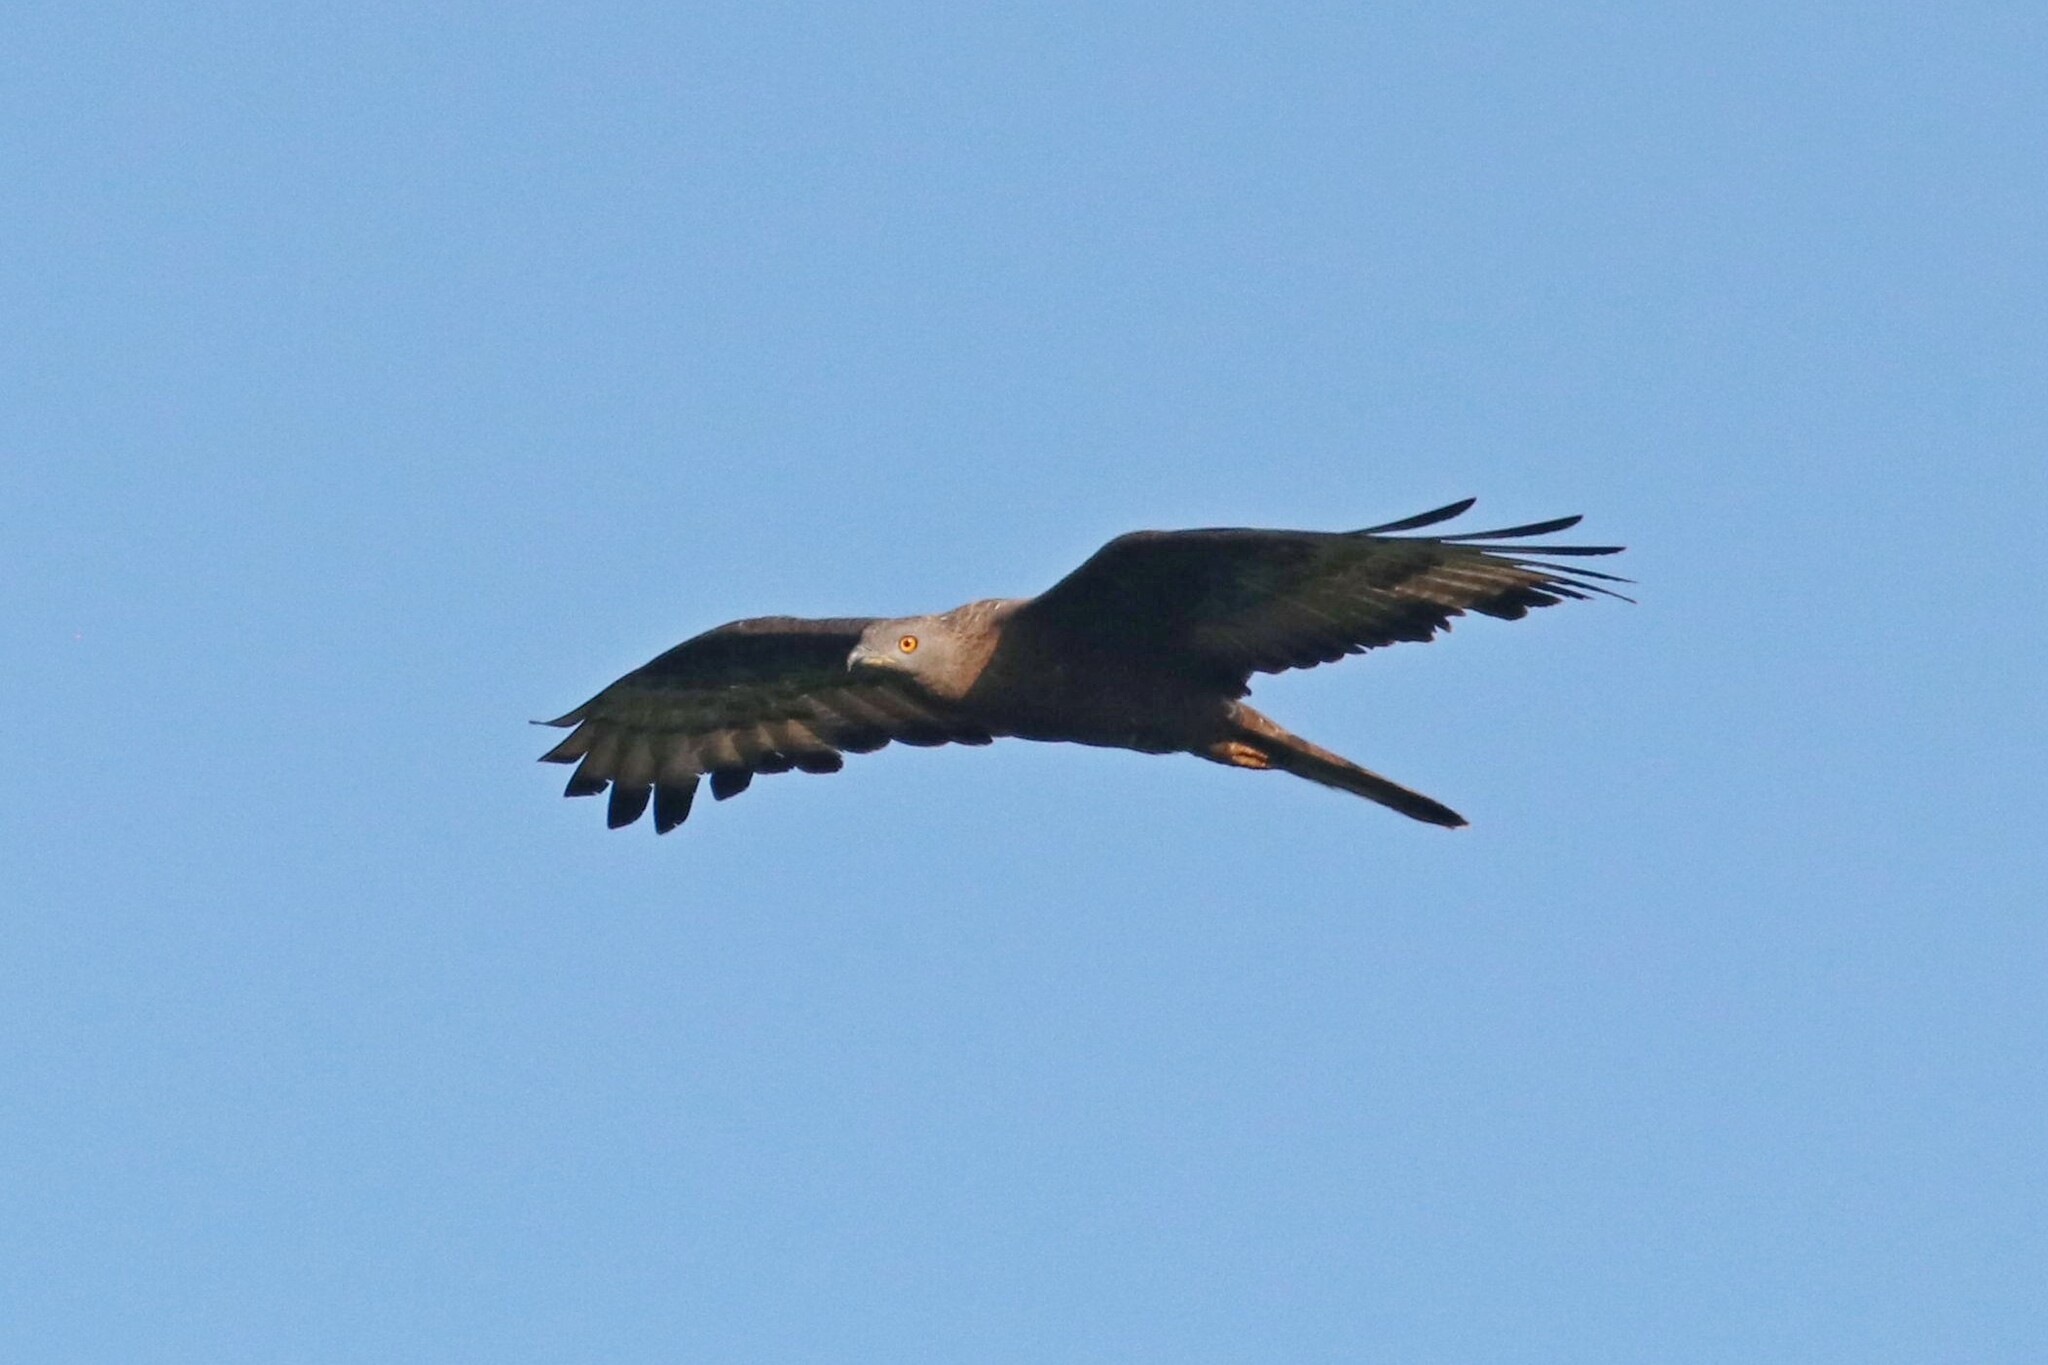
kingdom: Animalia
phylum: Chordata
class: Aves
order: Accipitriformes
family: Accipitridae
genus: Pernis
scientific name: Pernis apivorus
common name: European honey buzzard
